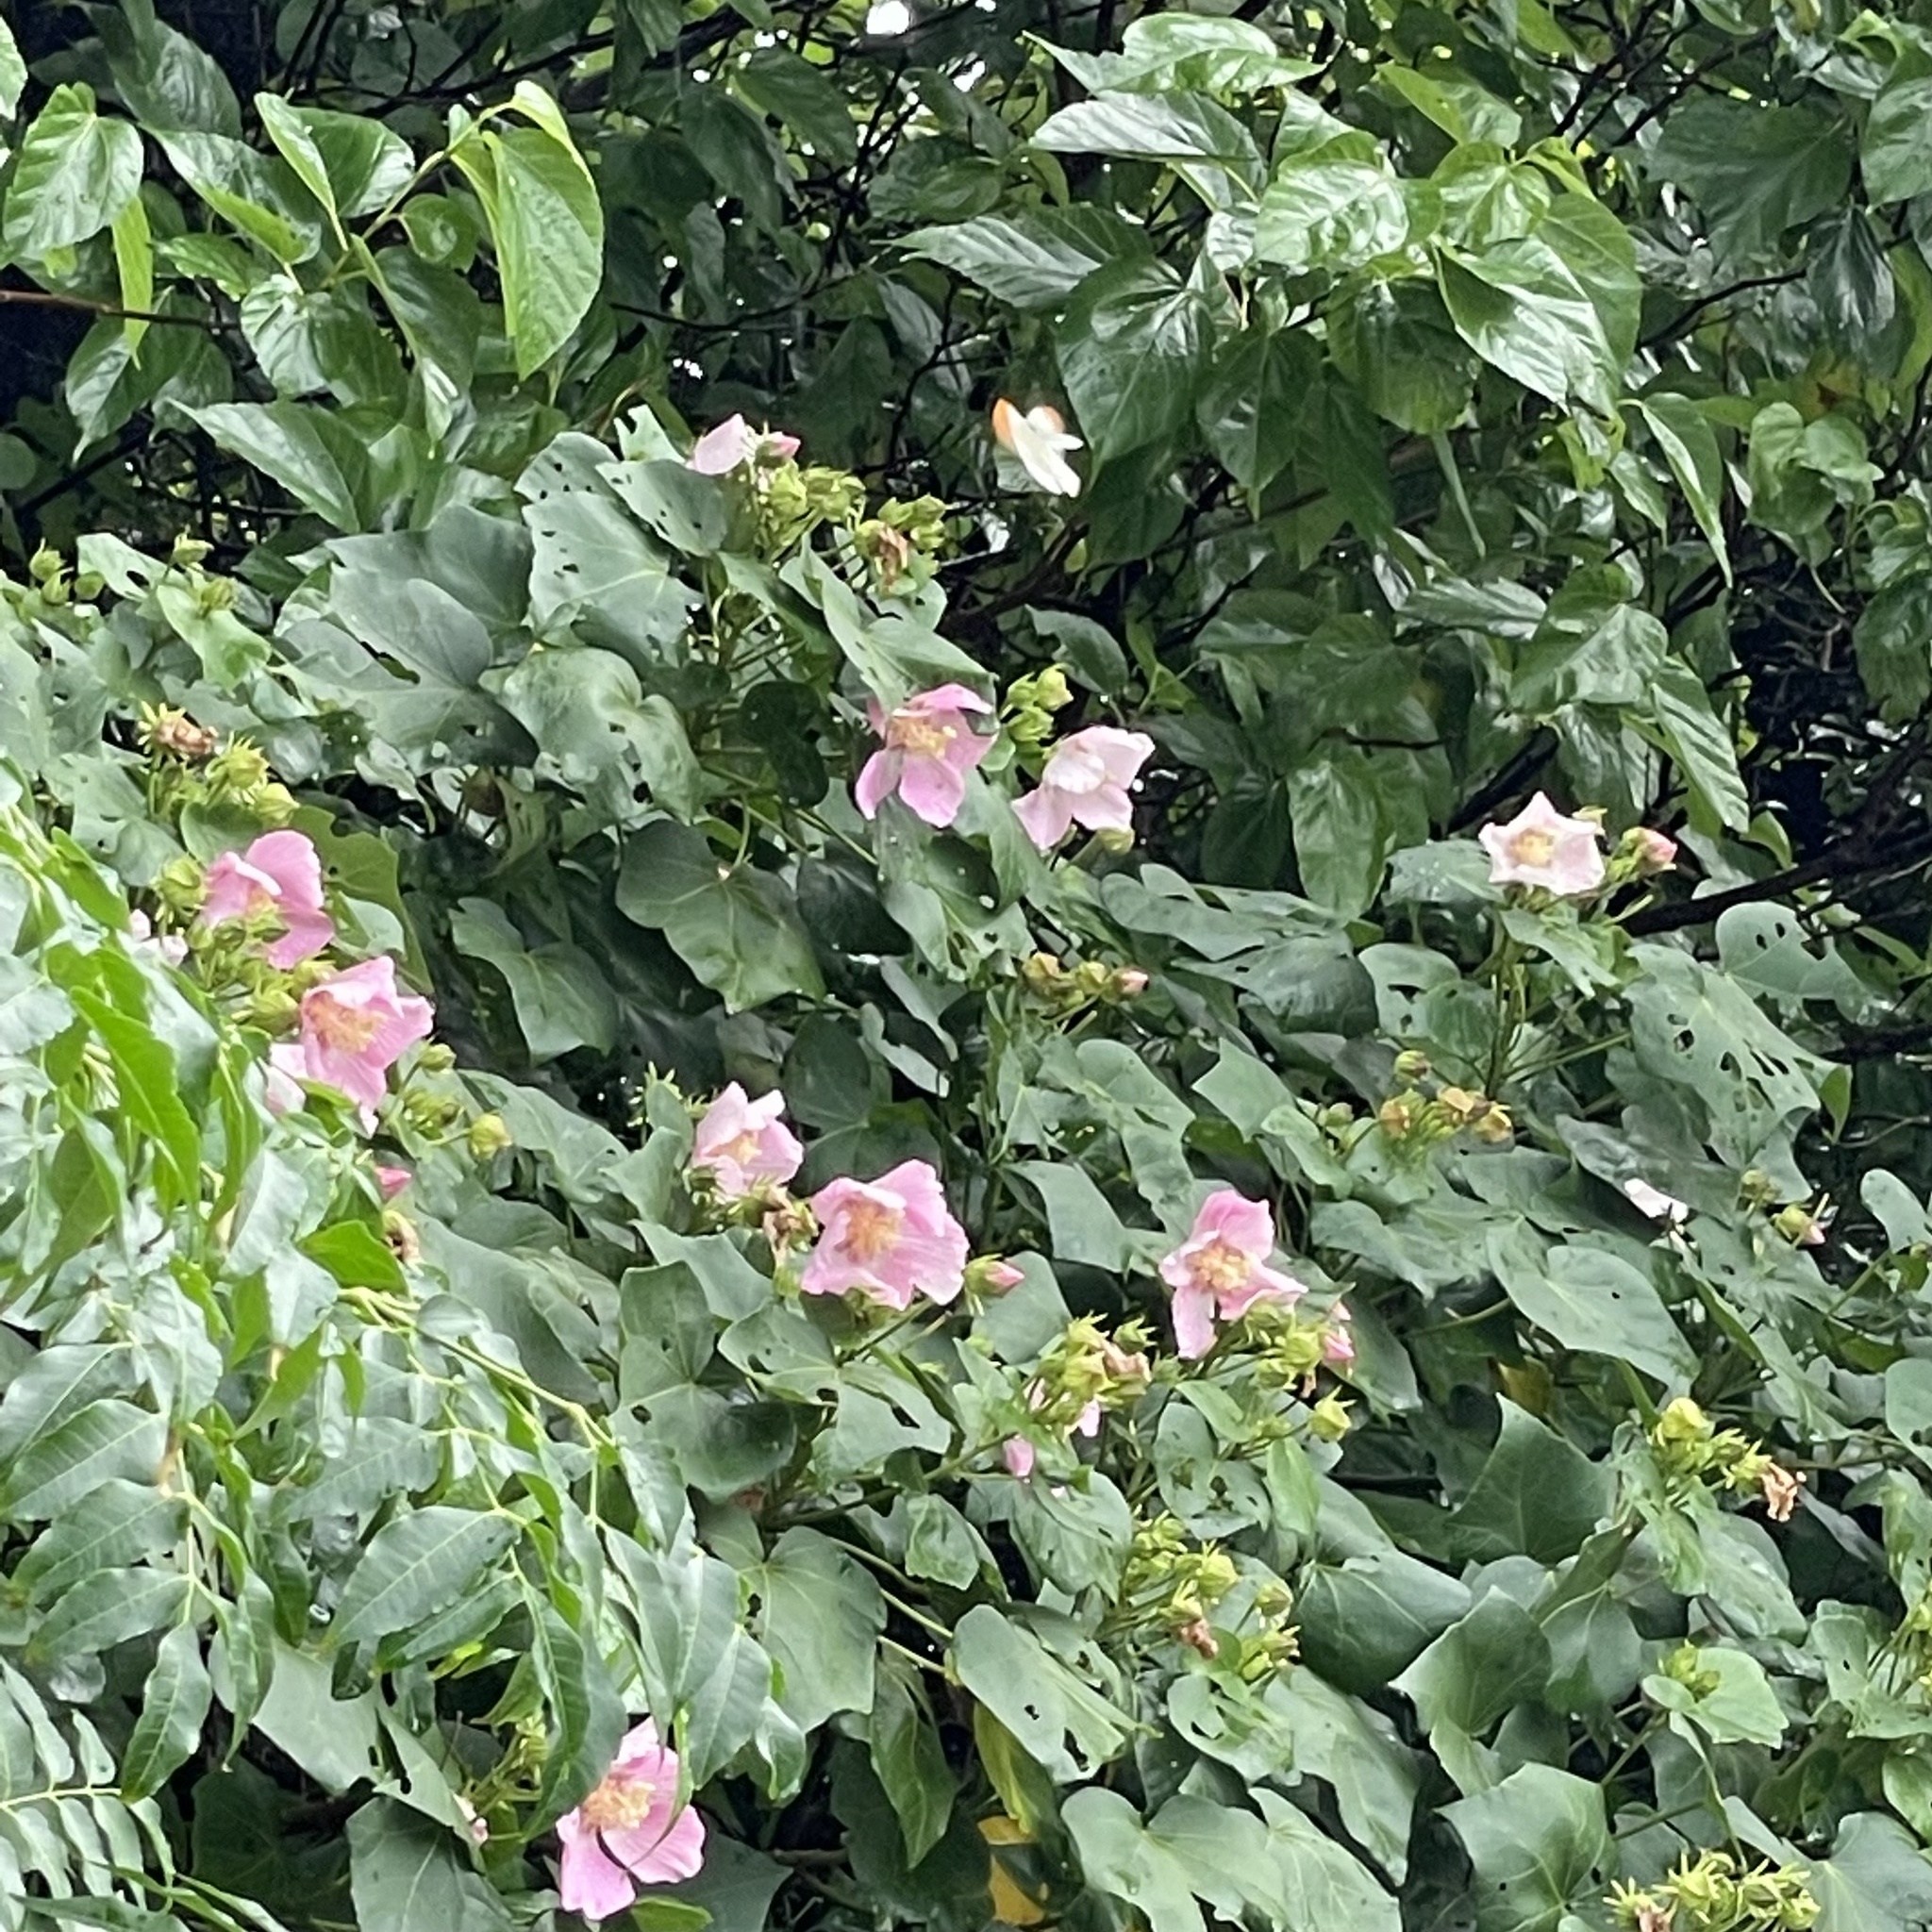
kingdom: Animalia
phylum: Arthropoda
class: Insecta
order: Lepidoptera
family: Pieridae
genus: Hebomoia
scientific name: Hebomoia glaucippe
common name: Great orange tip
